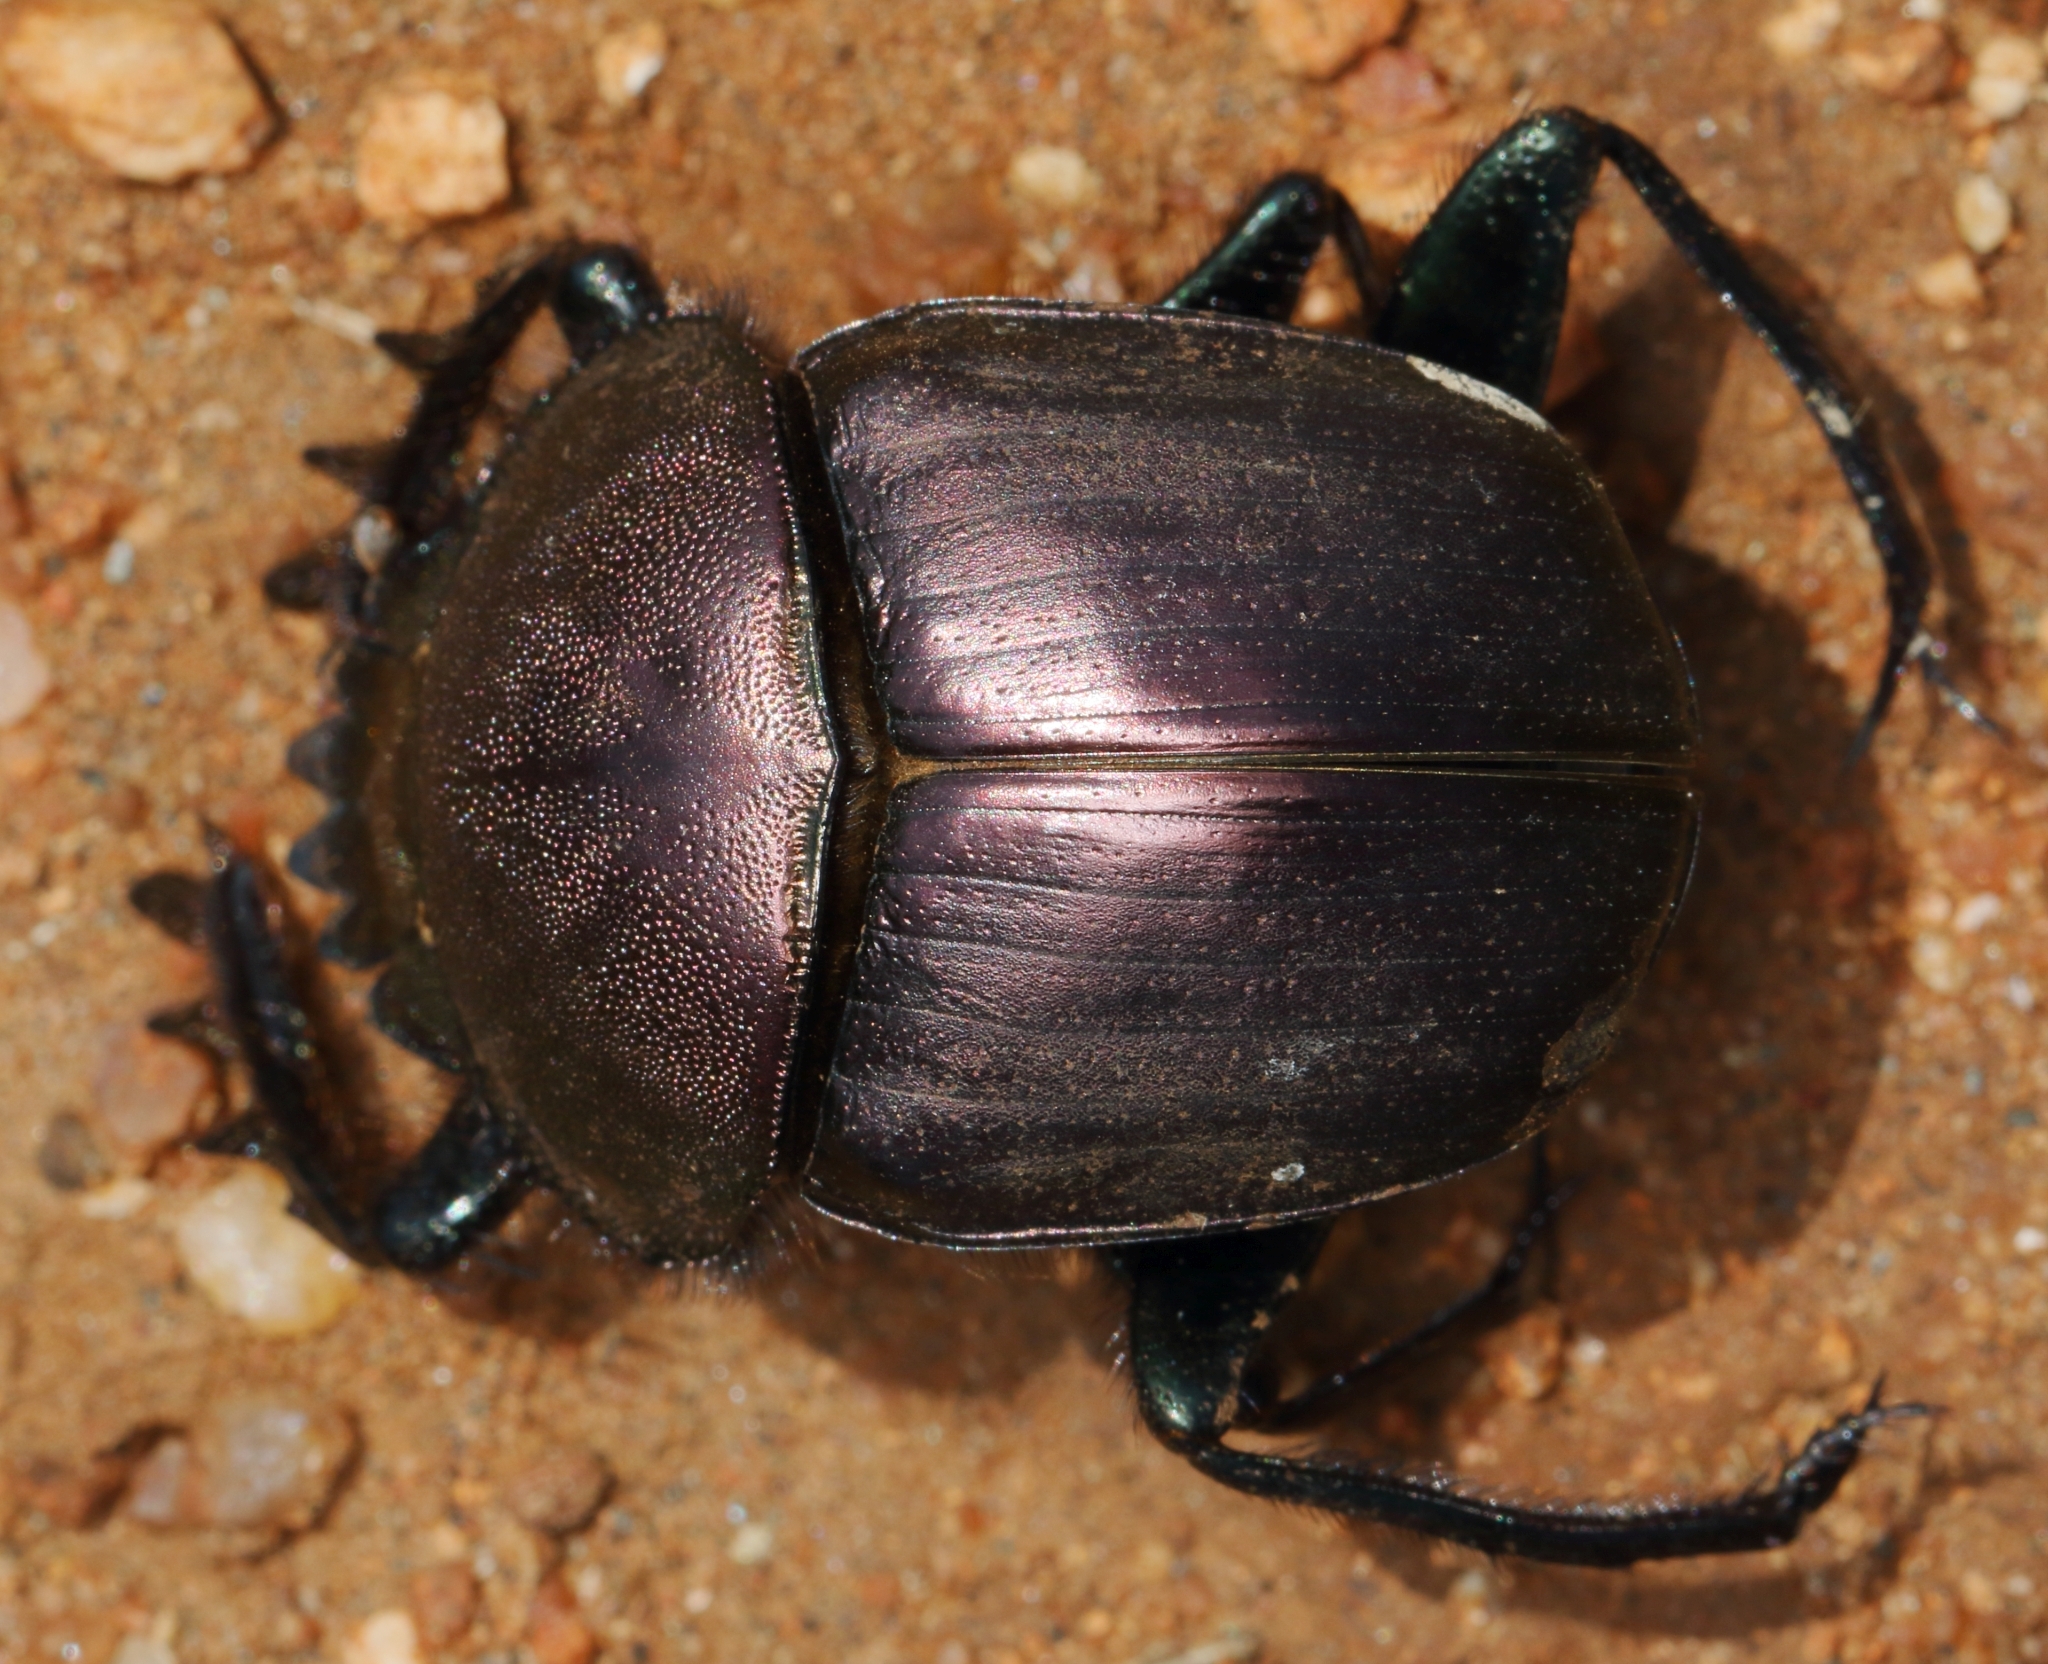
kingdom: Animalia
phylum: Arthropoda
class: Insecta
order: Coleoptera
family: Scarabaeidae
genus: Kheper
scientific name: Kheper nigroaeneus
